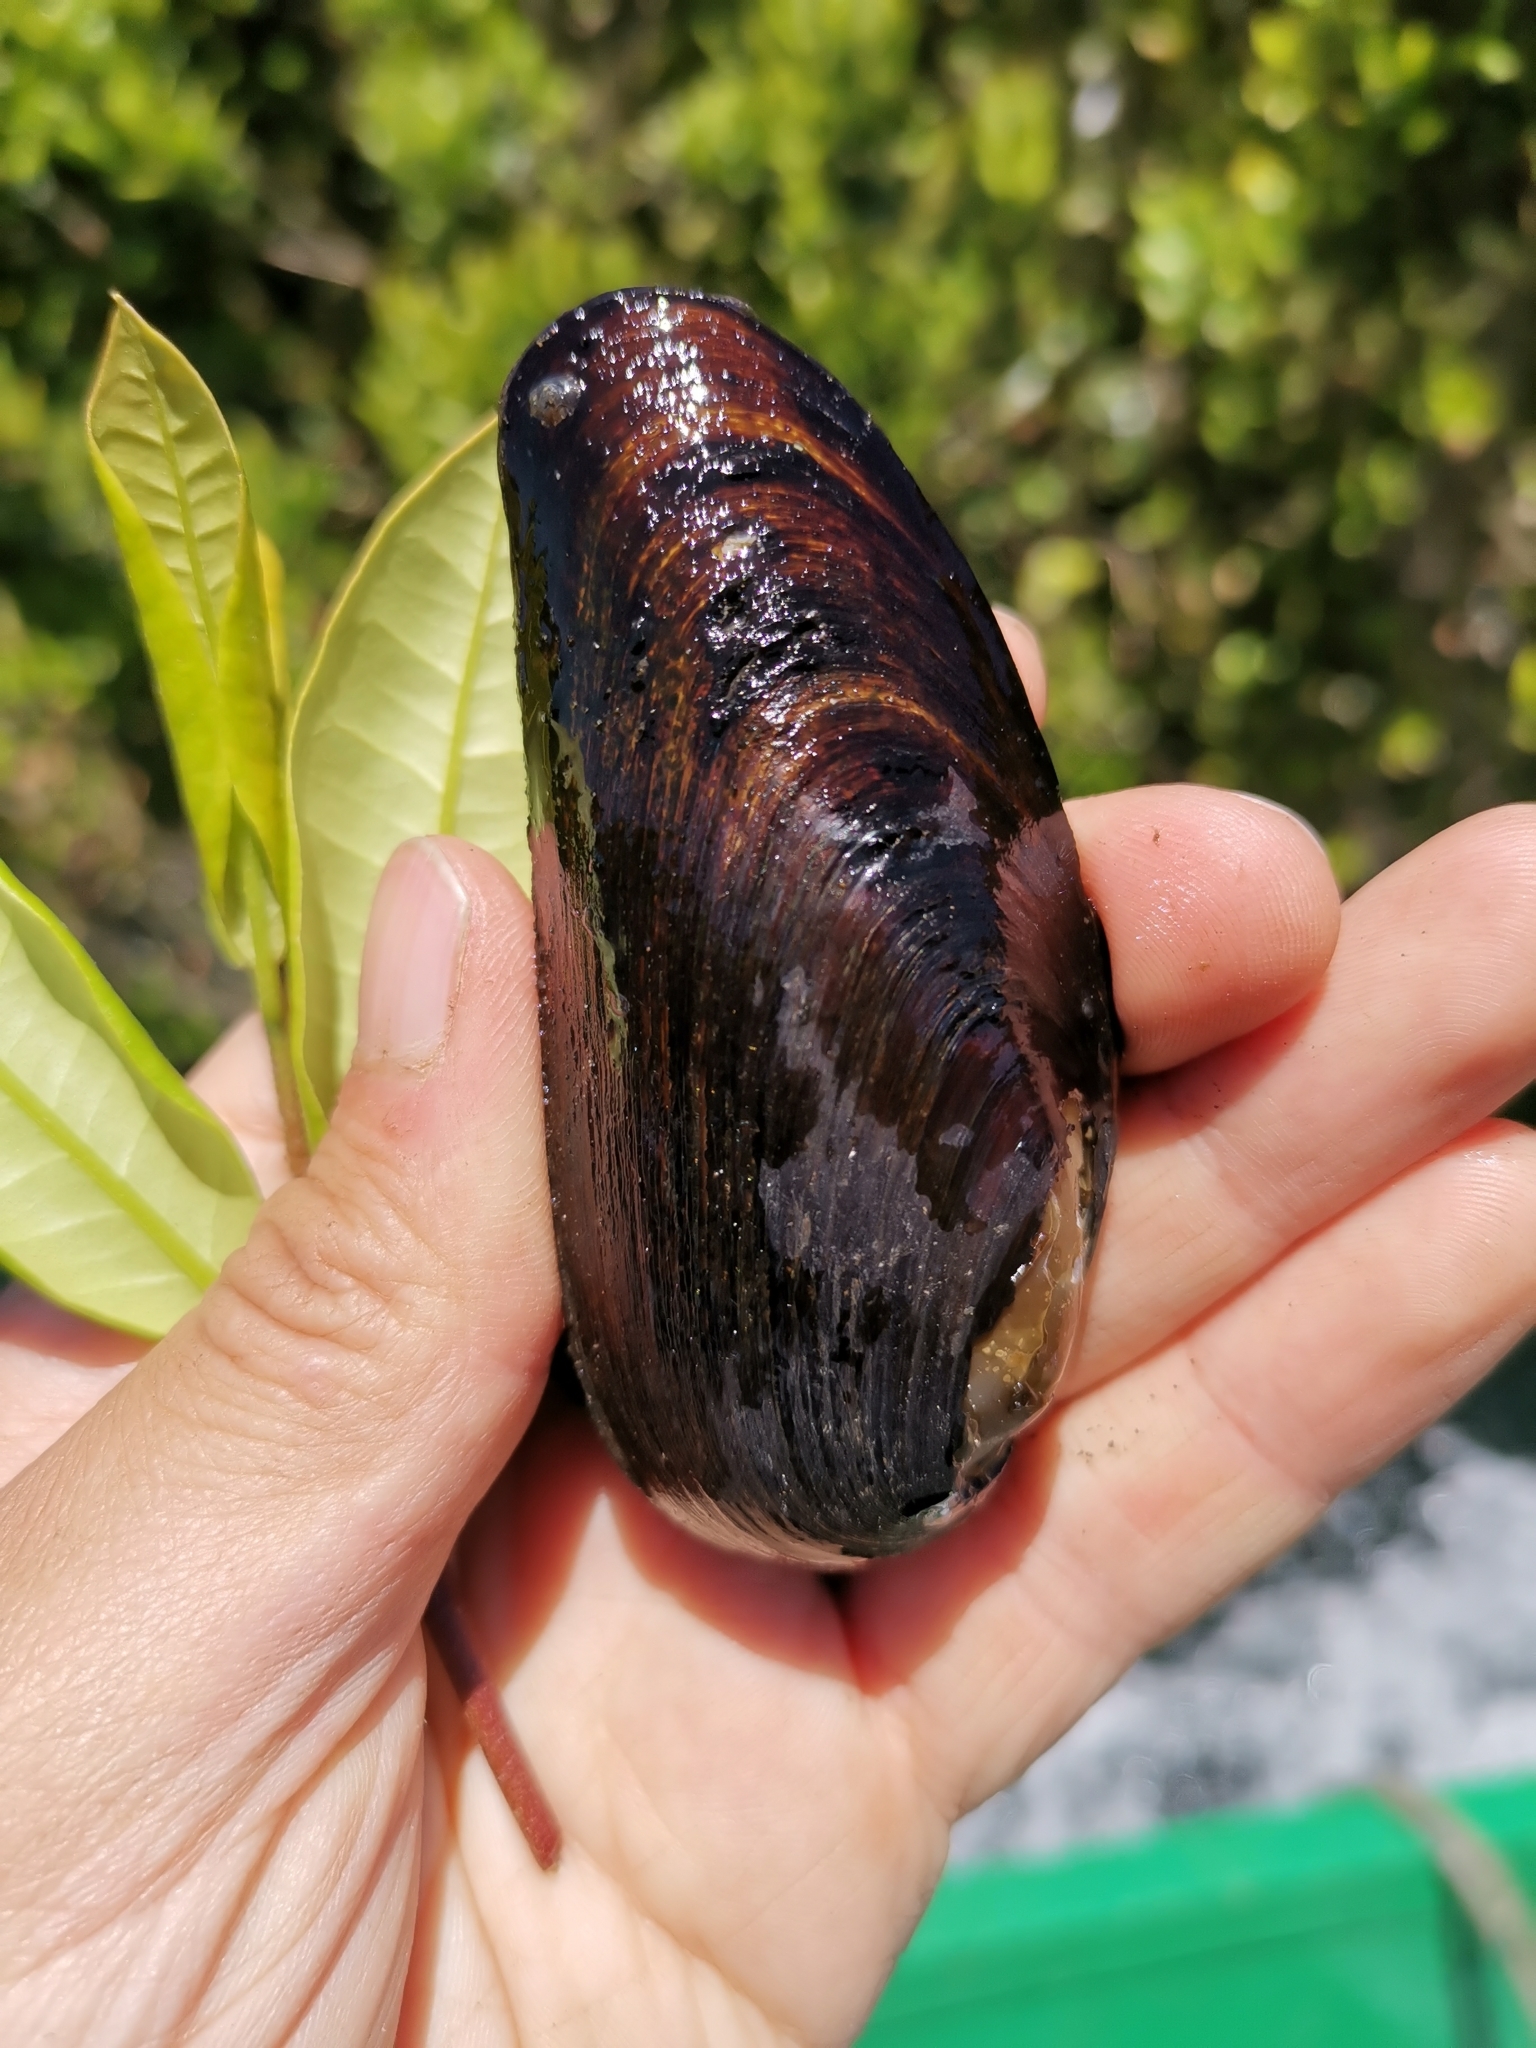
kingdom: Animalia
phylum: Mollusca
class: Bivalvia
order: Unionida
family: Hyriidae
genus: Diplodon
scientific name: Diplodon chilensis
